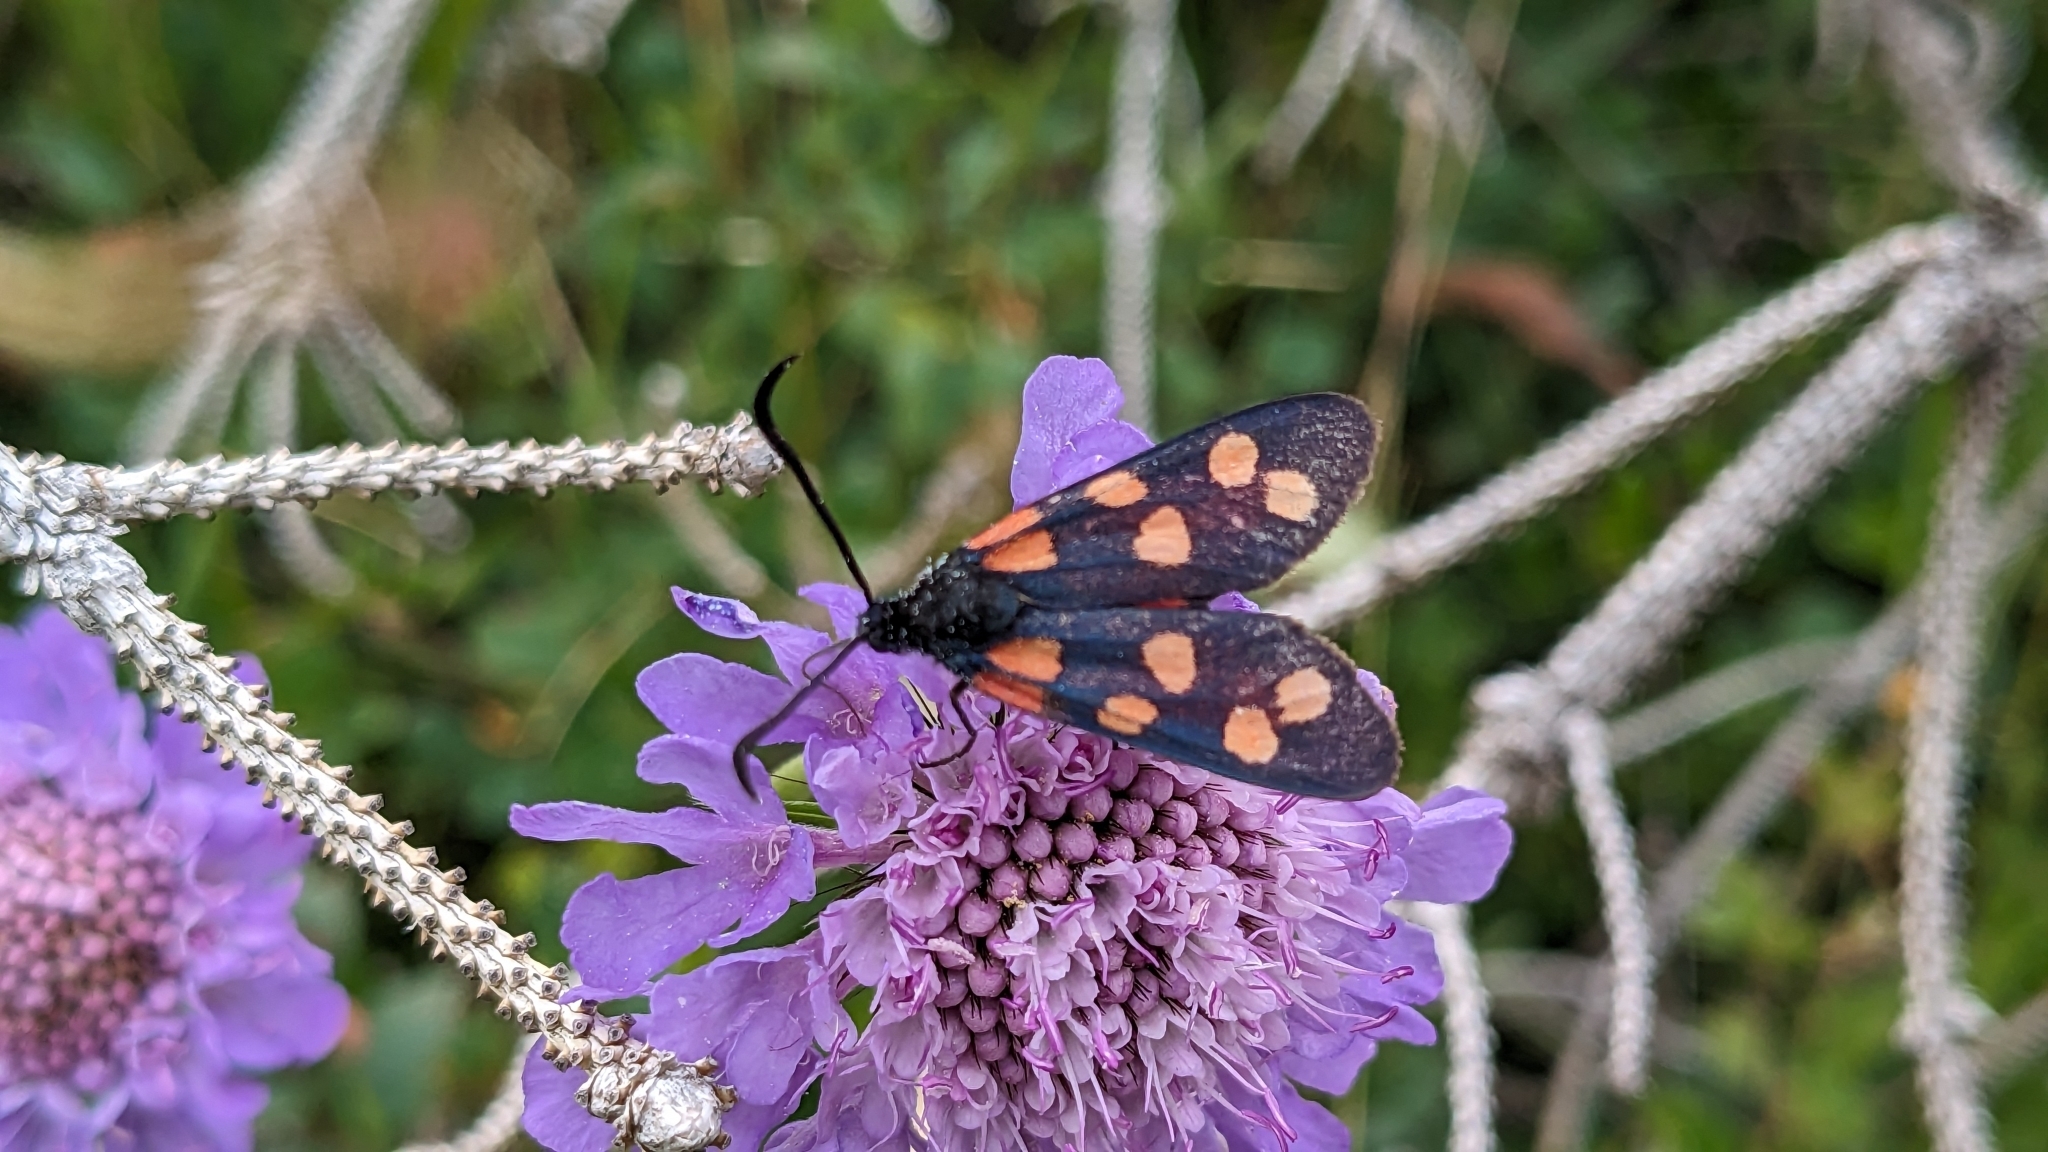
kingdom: Animalia
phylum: Arthropoda
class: Insecta
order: Lepidoptera
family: Zygaenidae
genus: Zygaena
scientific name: Zygaena transalpina
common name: Southern six spot burnet
